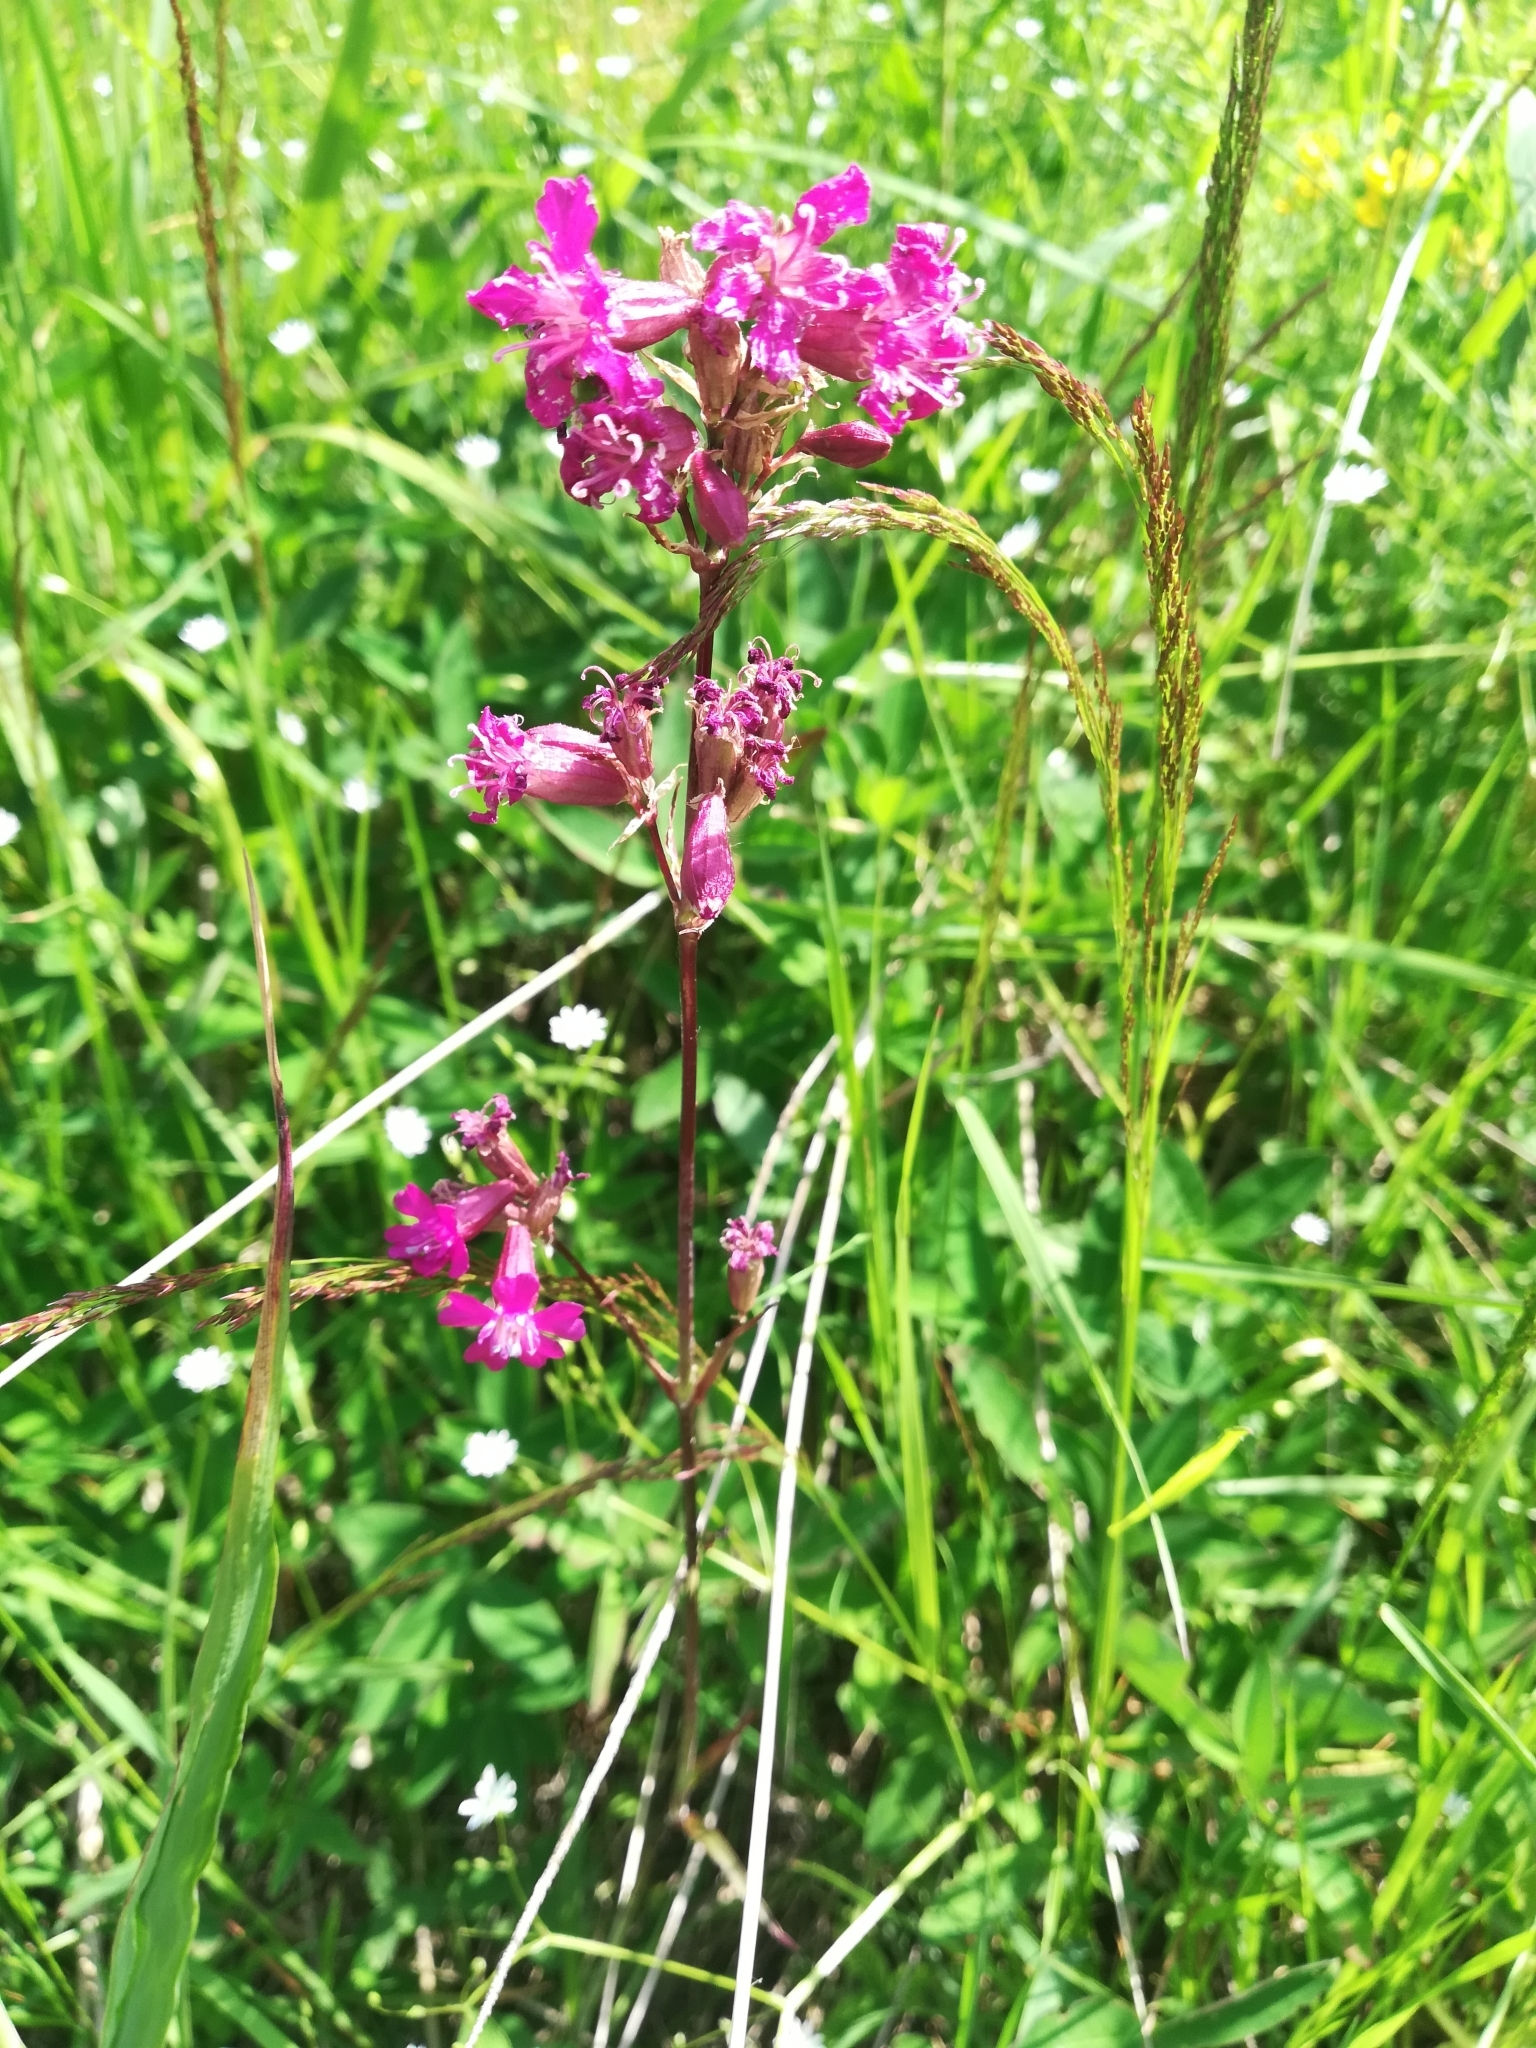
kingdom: Plantae
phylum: Tracheophyta
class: Magnoliopsida
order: Caryophyllales
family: Caryophyllaceae
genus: Viscaria
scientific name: Viscaria vulgaris
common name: Clammy campion
